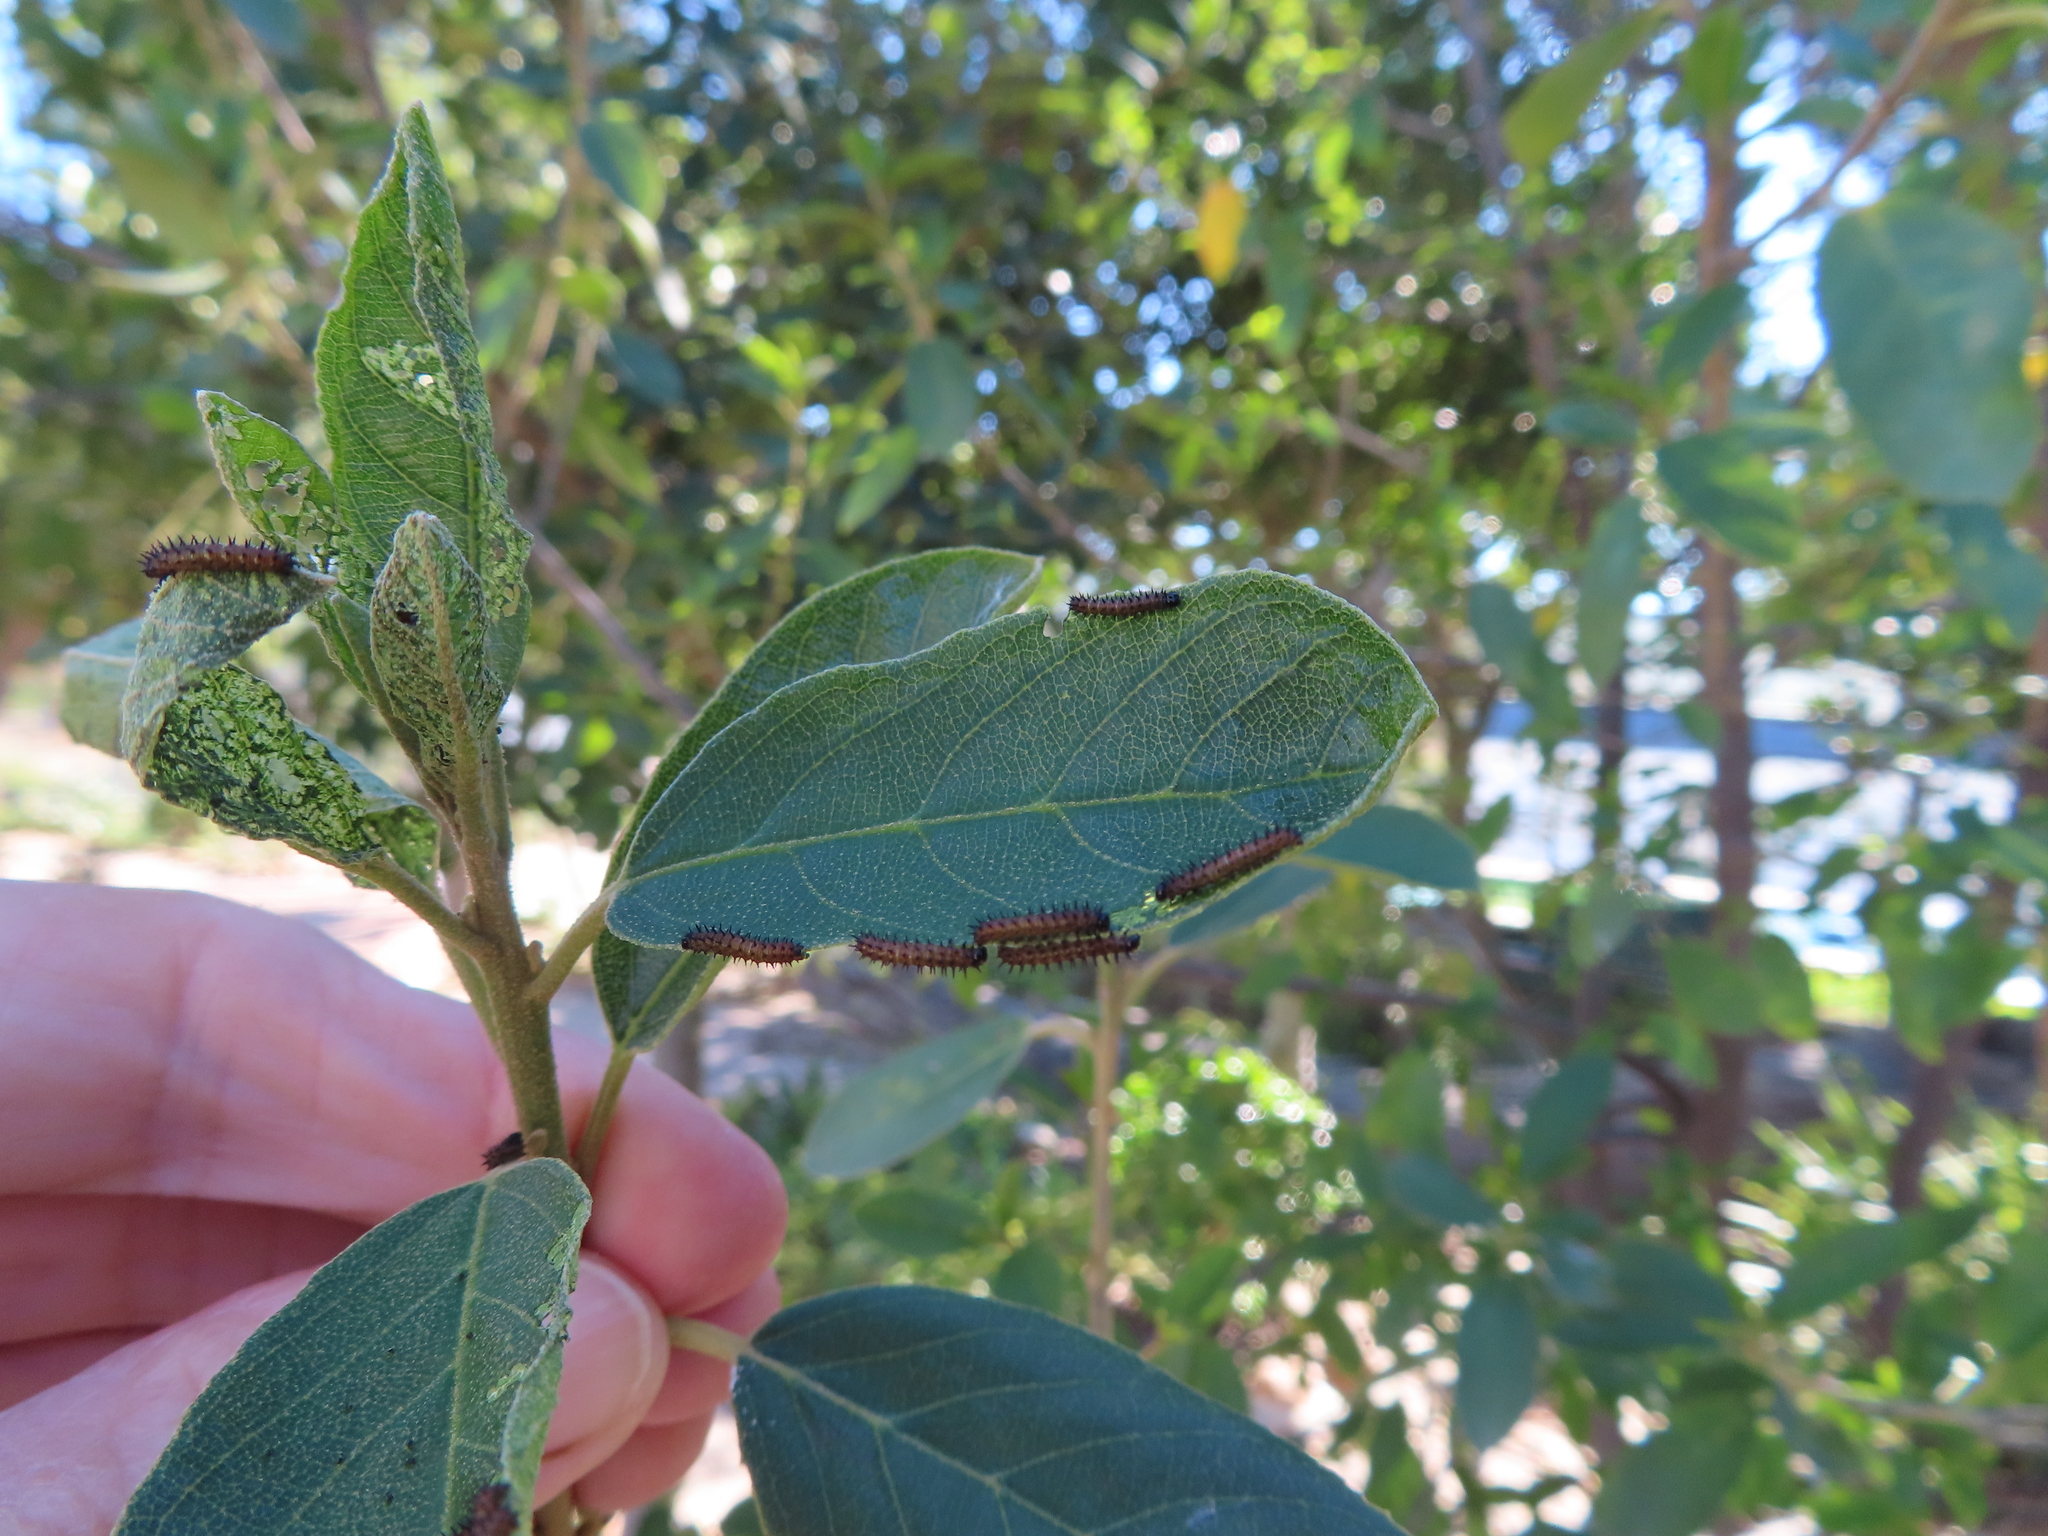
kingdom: Animalia
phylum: Arthropoda
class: Insecta
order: Lepidoptera
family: Nymphalidae
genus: Acraea
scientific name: Acraea horta
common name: Garden acraea
